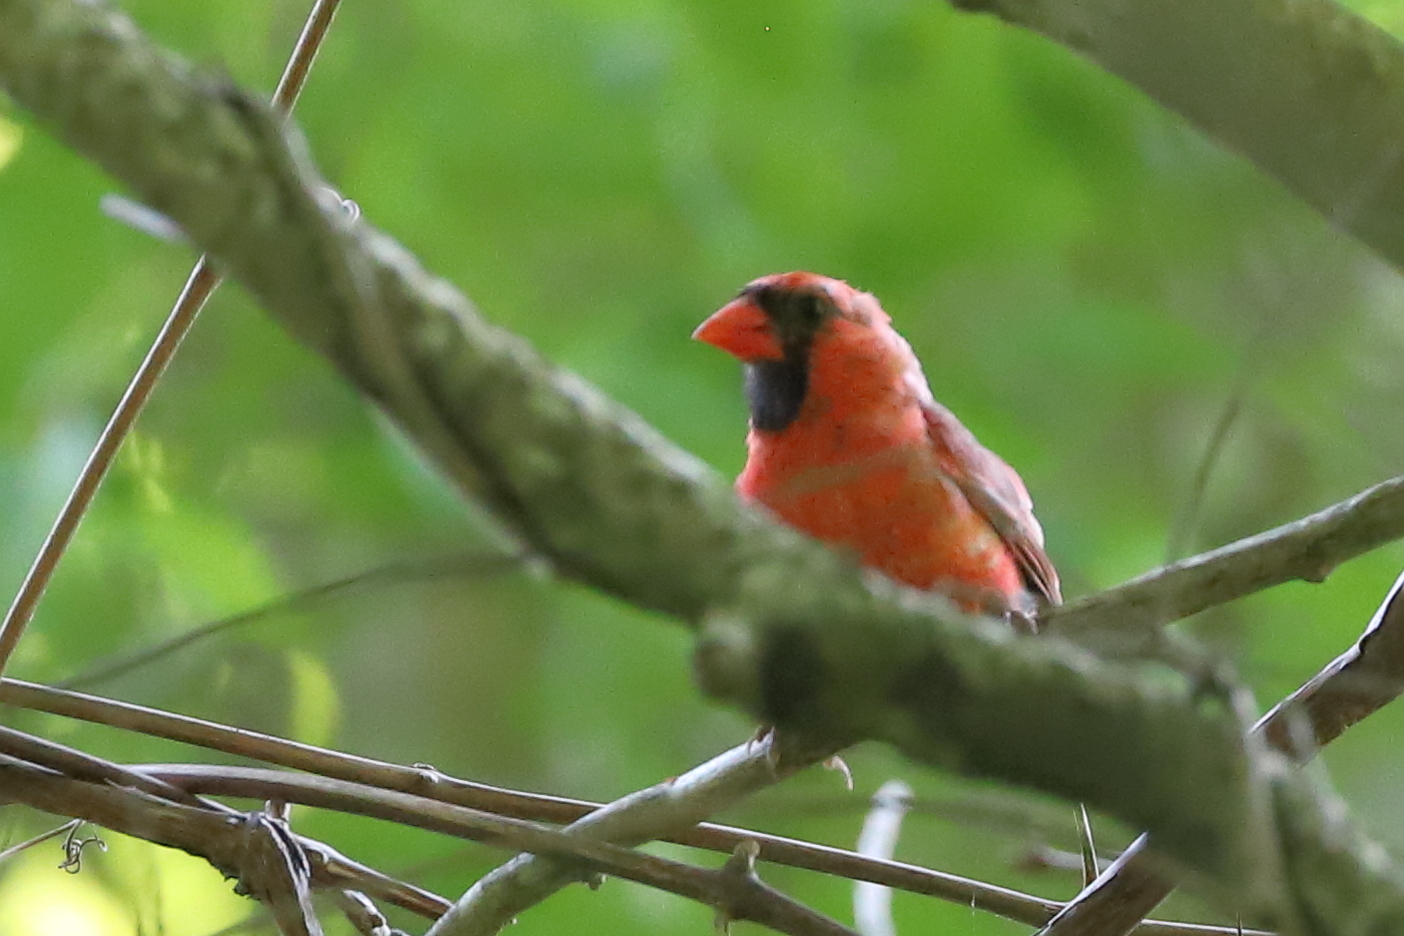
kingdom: Animalia
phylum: Chordata
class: Aves
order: Passeriformes
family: Cardinalidae
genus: Cardinalis
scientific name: Cardinalis cardinalis
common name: Northern cardinal
